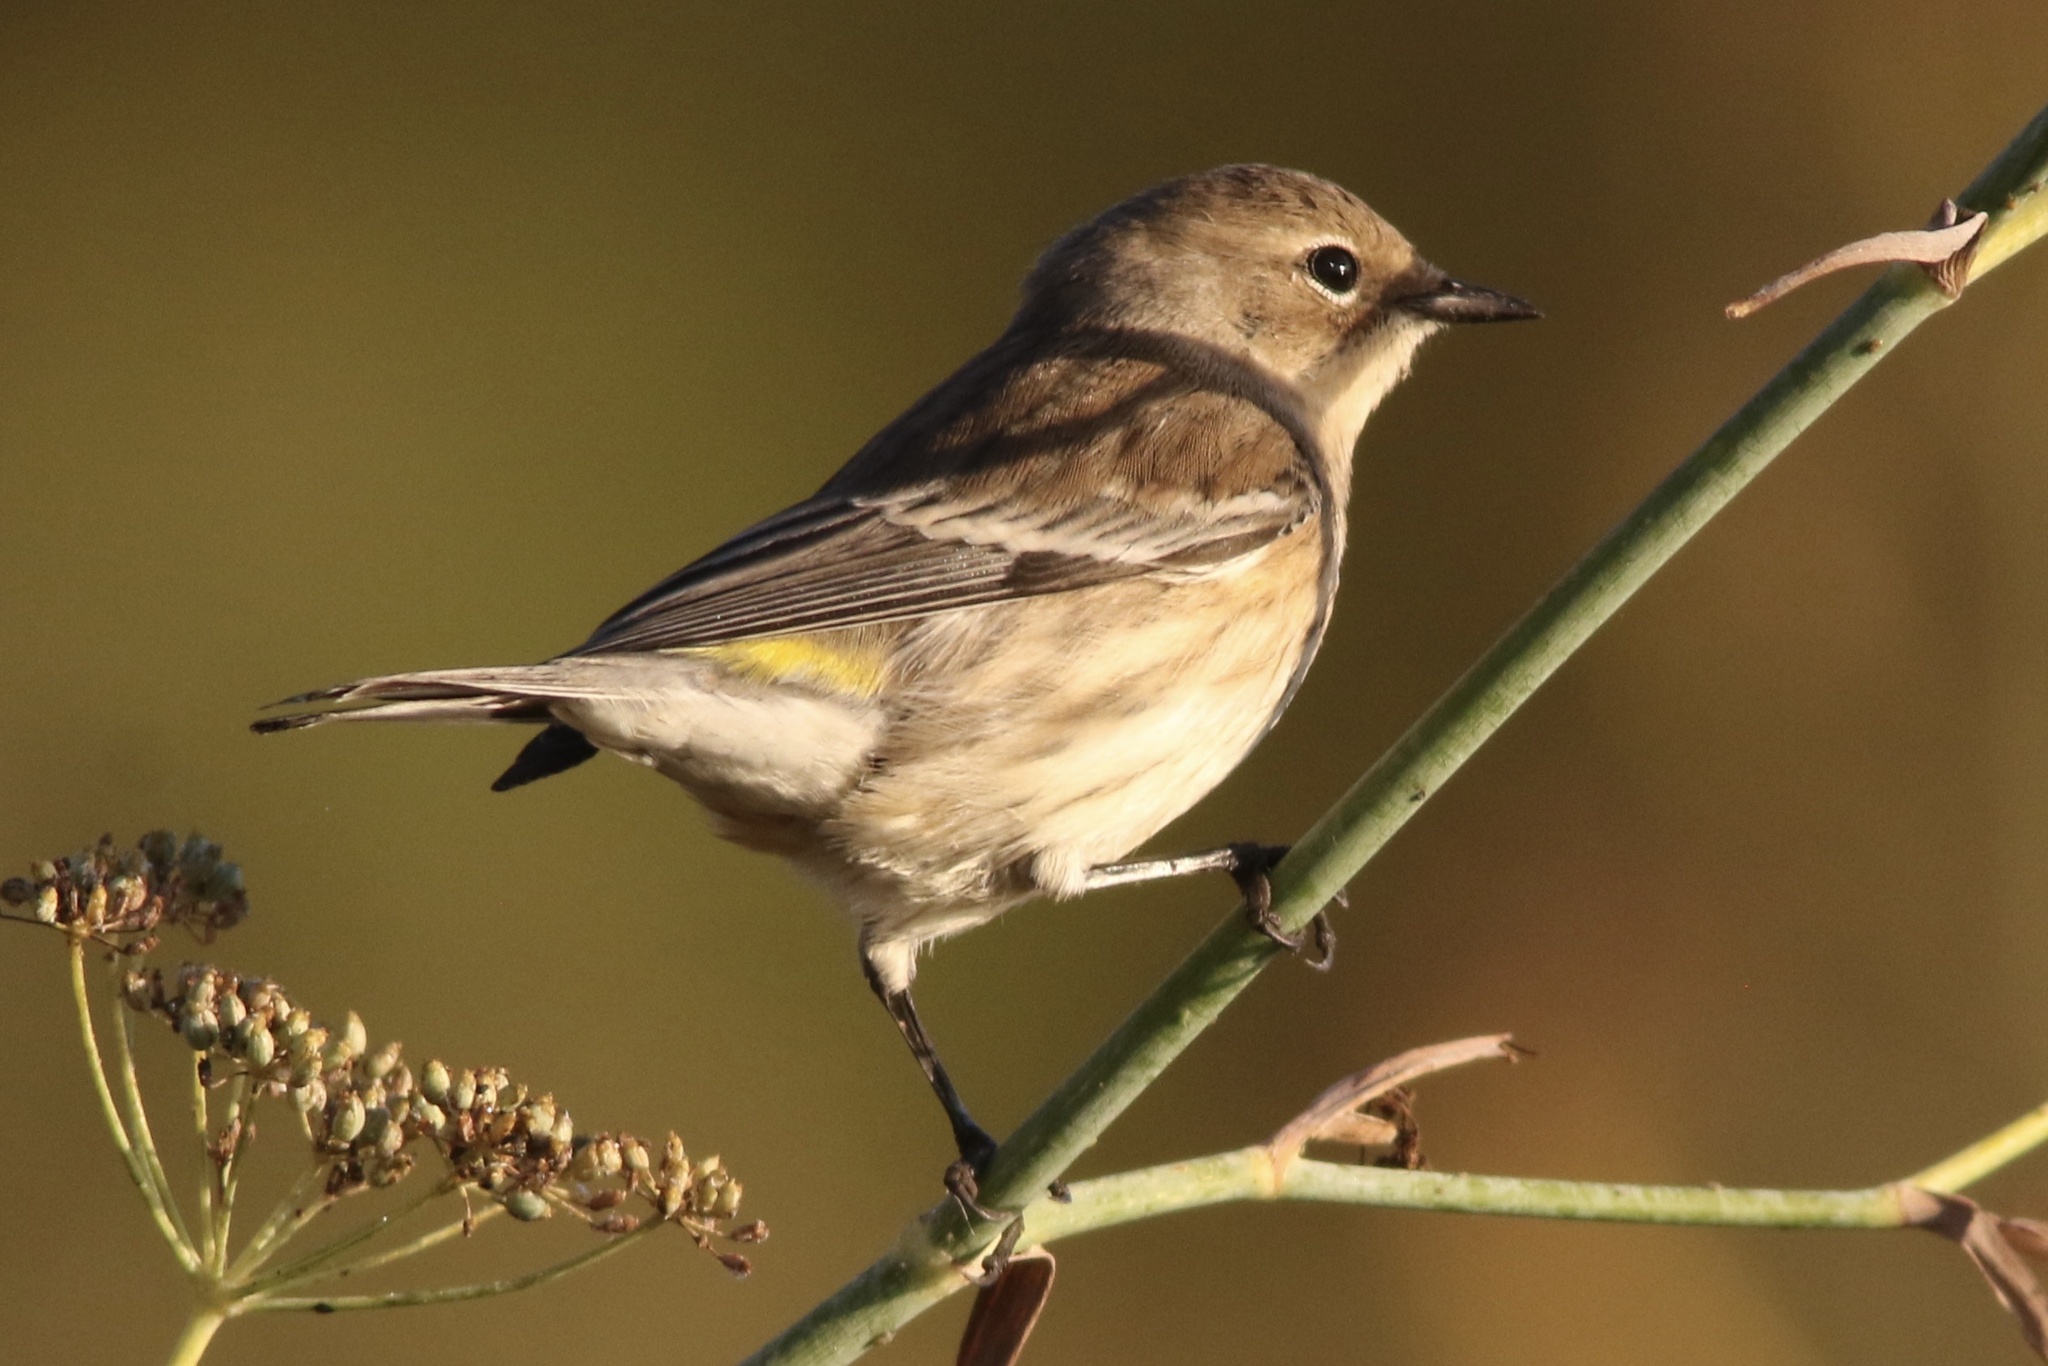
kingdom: Animalia
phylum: Chordata
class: Aves
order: Passeriformes
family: Parulidae
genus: Setophaga
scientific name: Setophaga coronata
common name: Myrtle warbler
